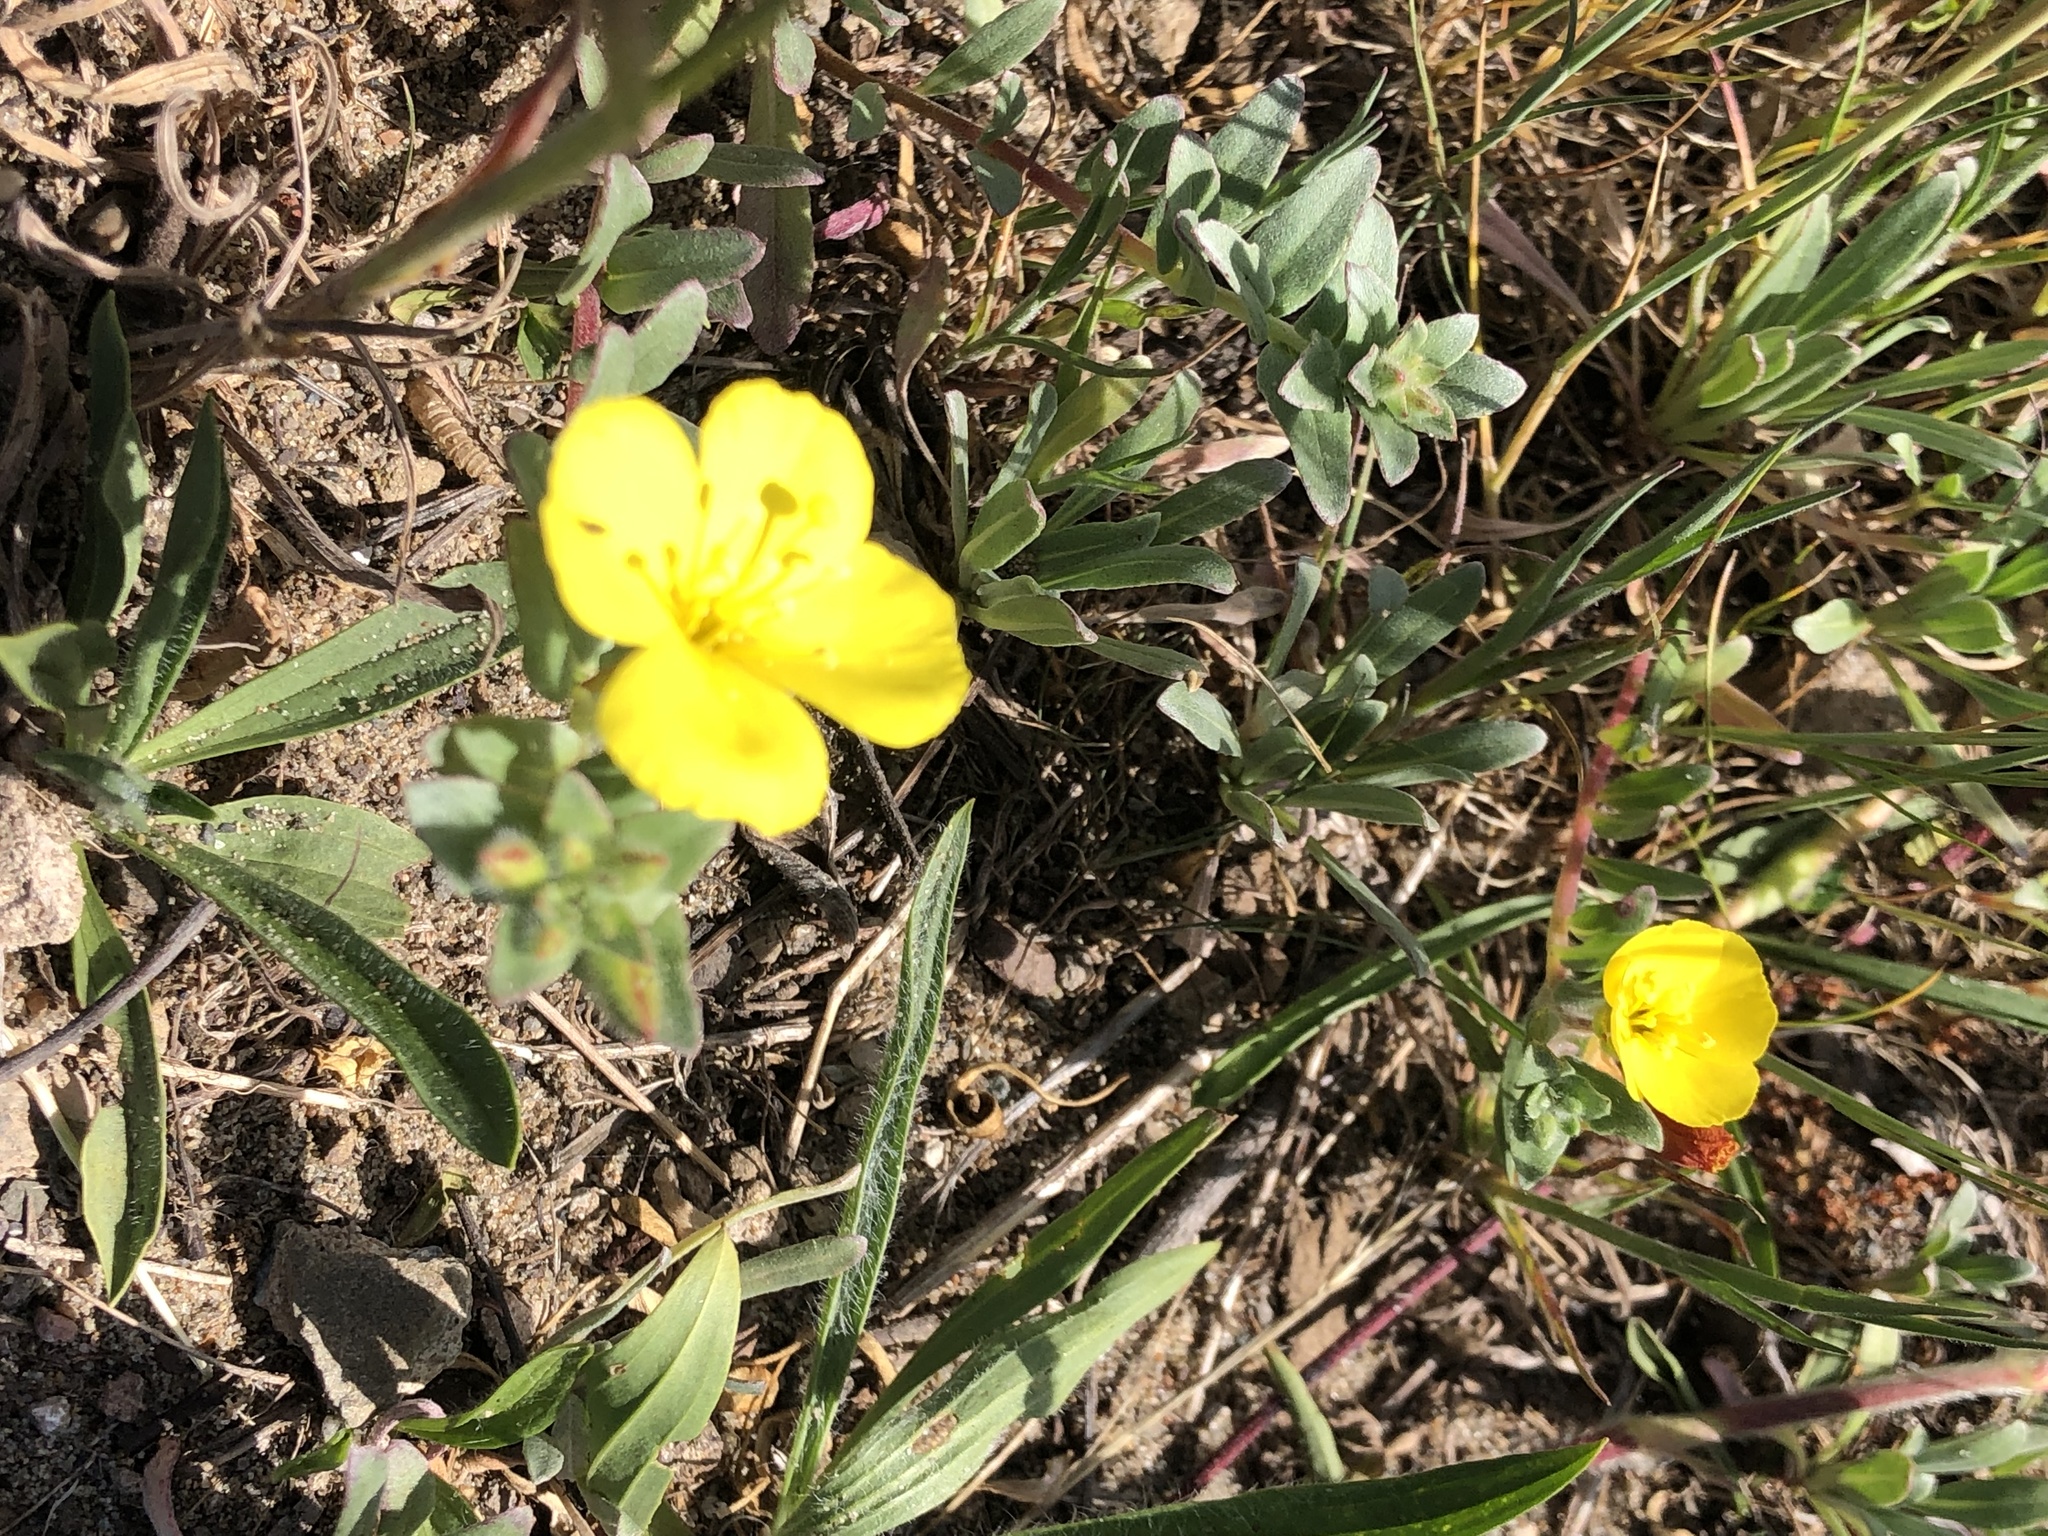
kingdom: Plantae
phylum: Tracheophyta
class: Magnoliopsida
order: Myrtales
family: Onagraceae
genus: Camissoniopsis
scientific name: Camissoniopsis cheiranthifolia
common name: Beach suncup
